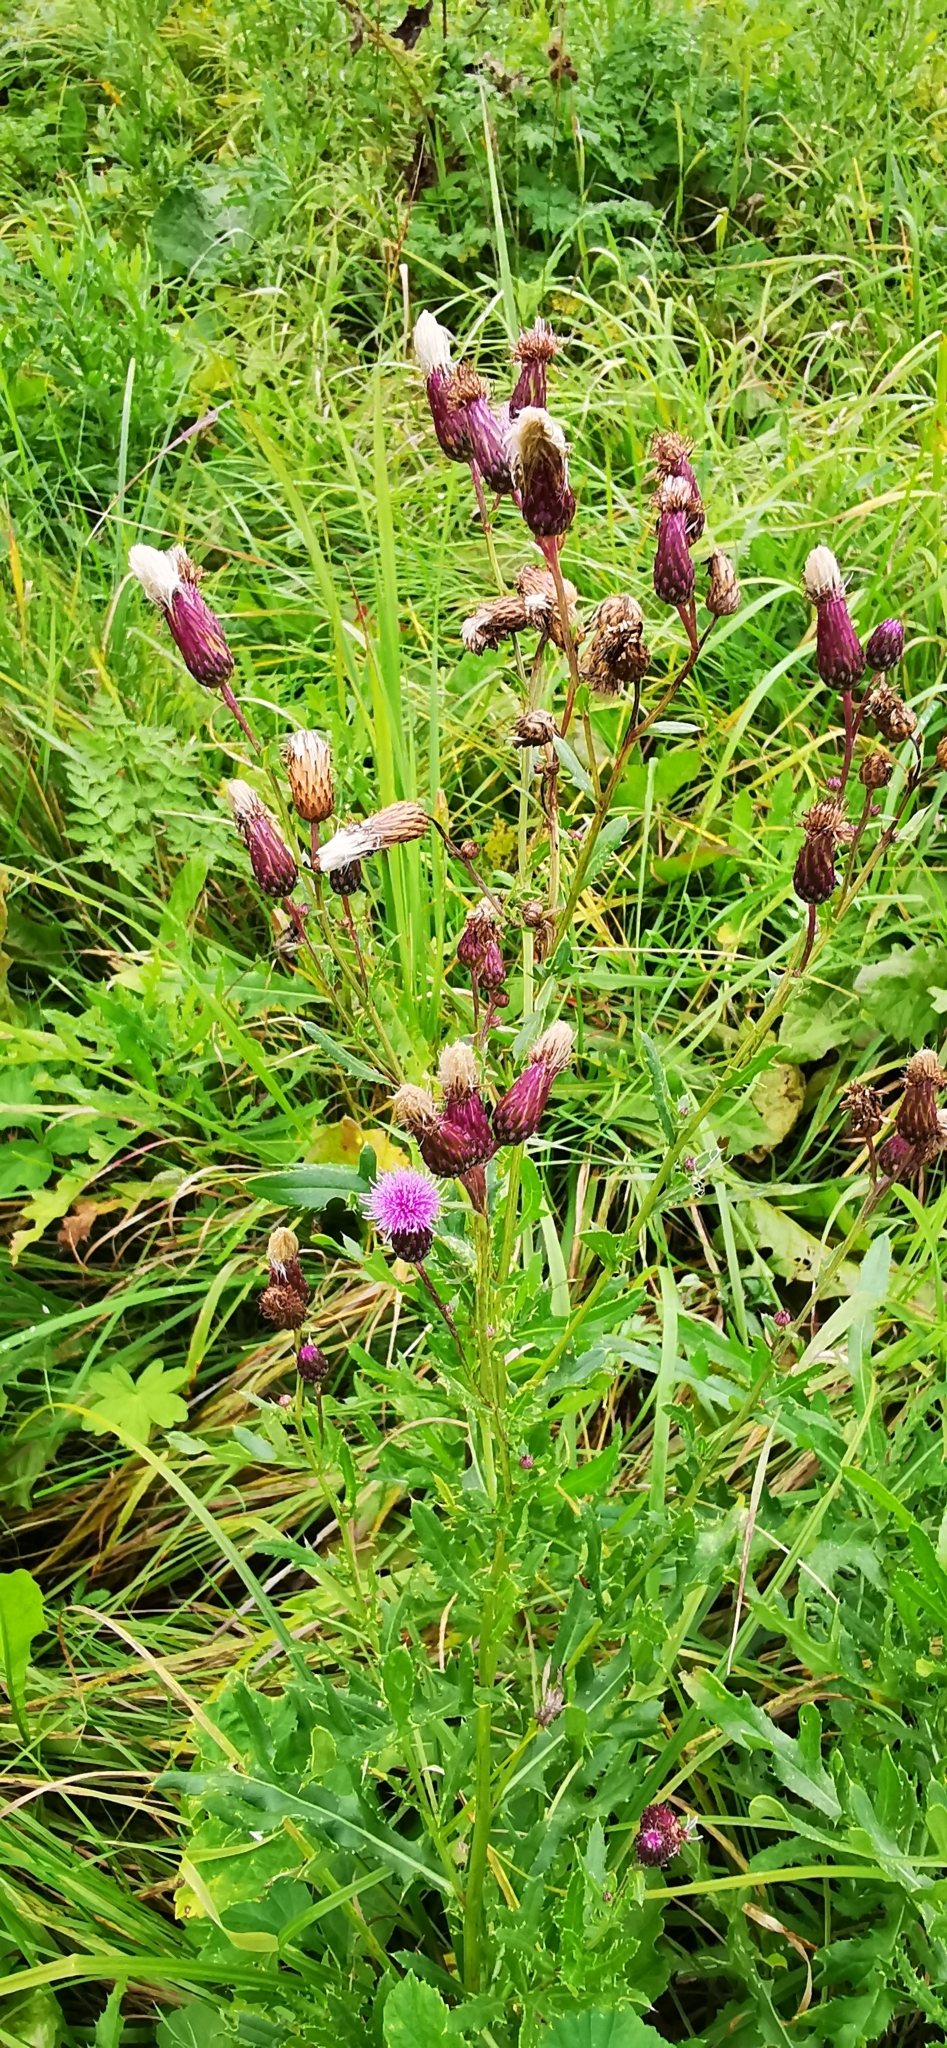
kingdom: Plantae
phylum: Tracheophyta
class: Magnoliopsida
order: Asterales
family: Asteraceae
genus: Cirsium
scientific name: Cirsium arvense
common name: Creeping thistle
